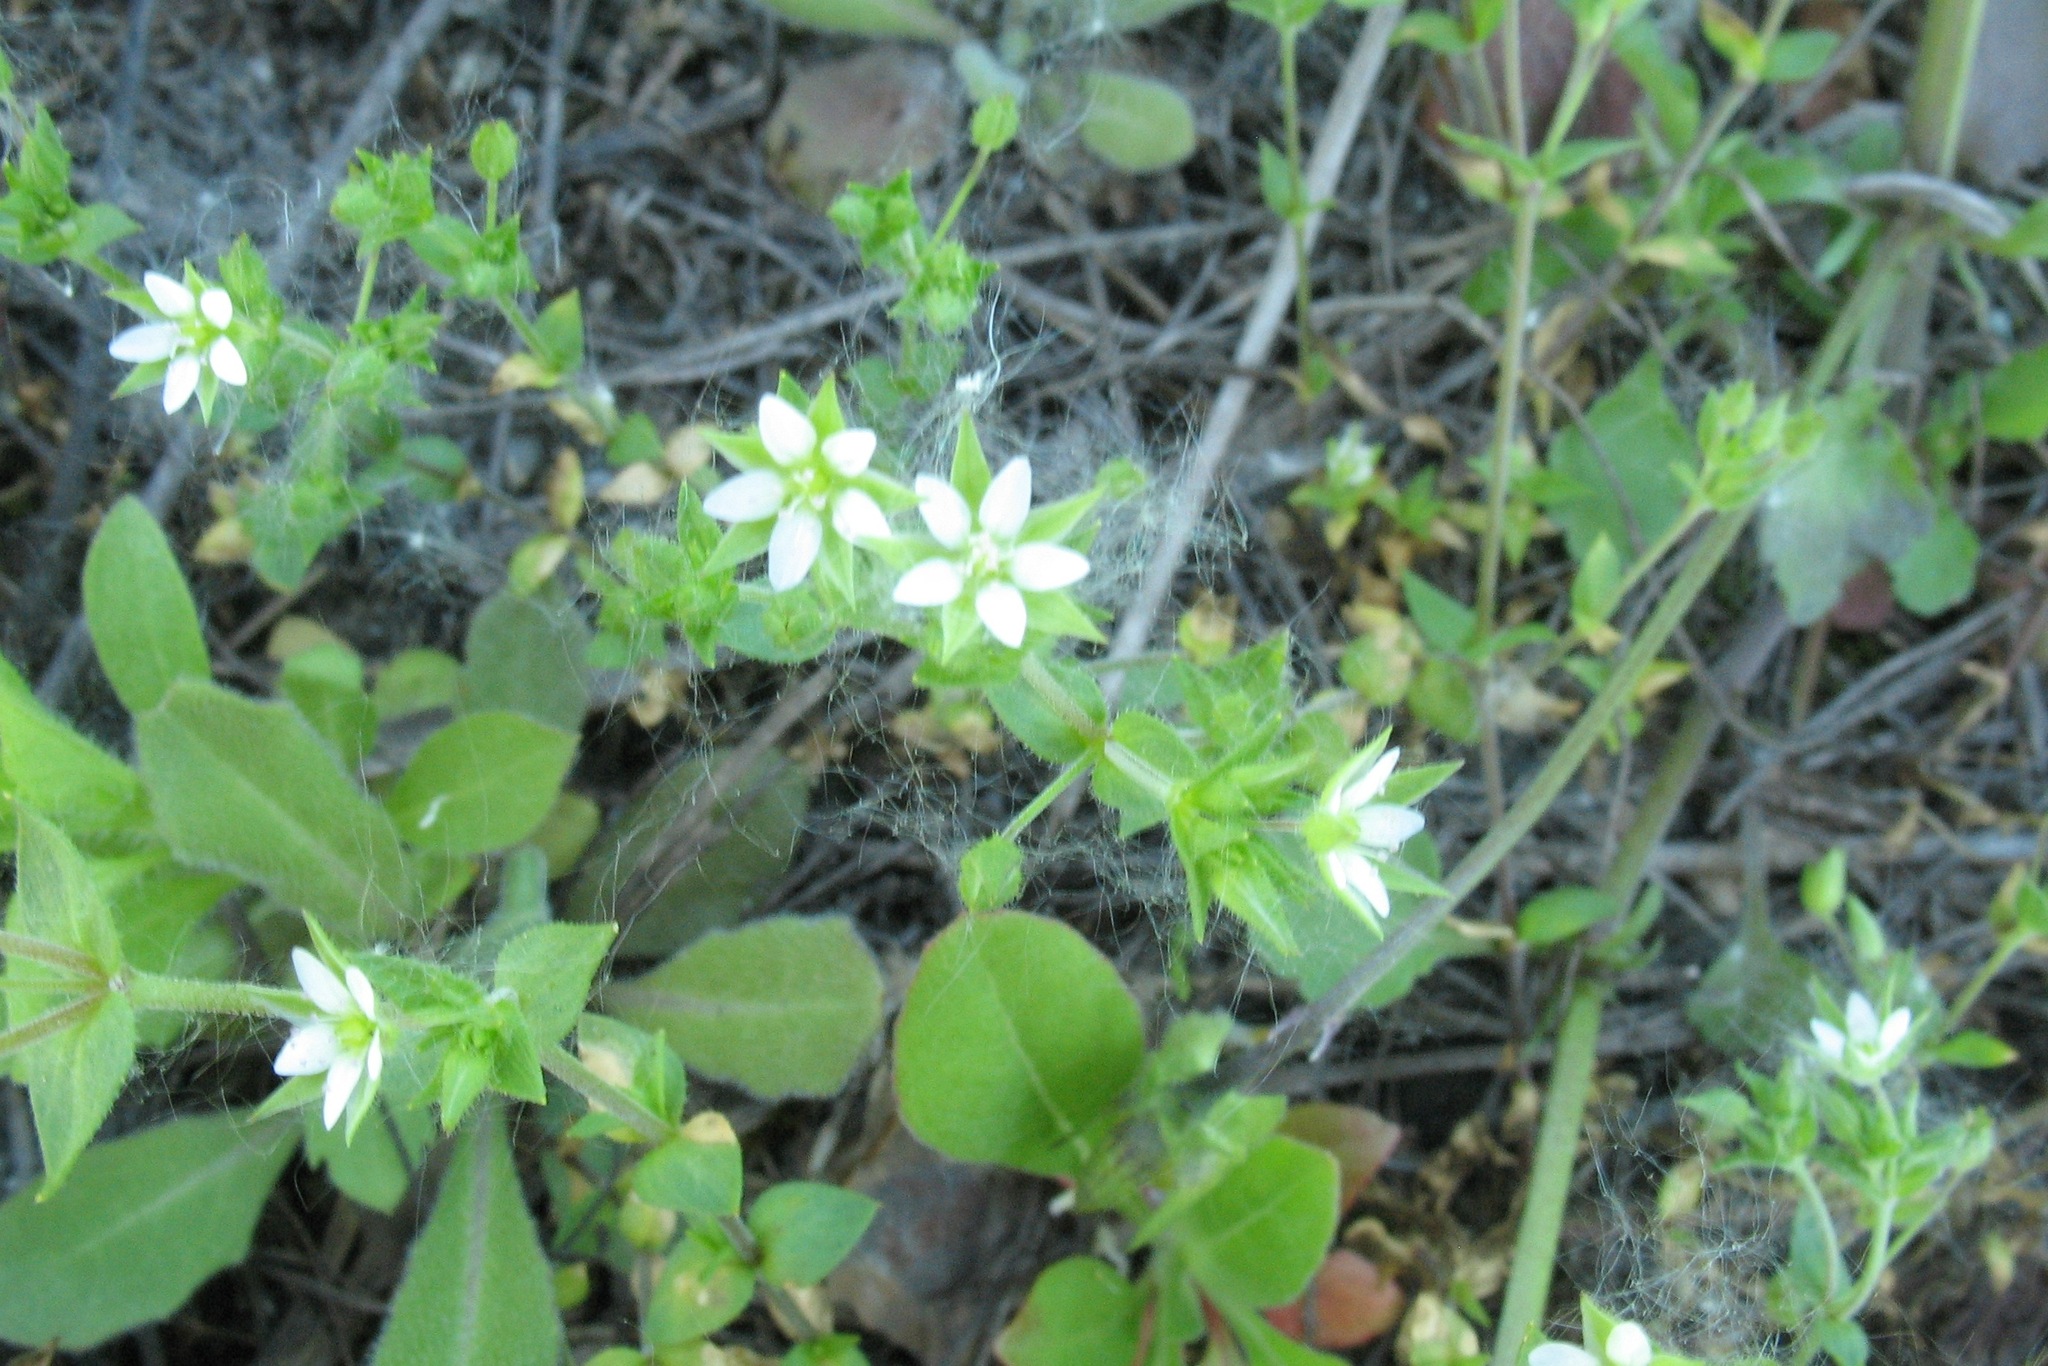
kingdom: Plantae
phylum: Tracheophyta
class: Magnoliopsida
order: Caryophyllales
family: Caryophyllaceae
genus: Arenaria
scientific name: Arenaria serpyllifolia
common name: Thyme-leaved sandwort
